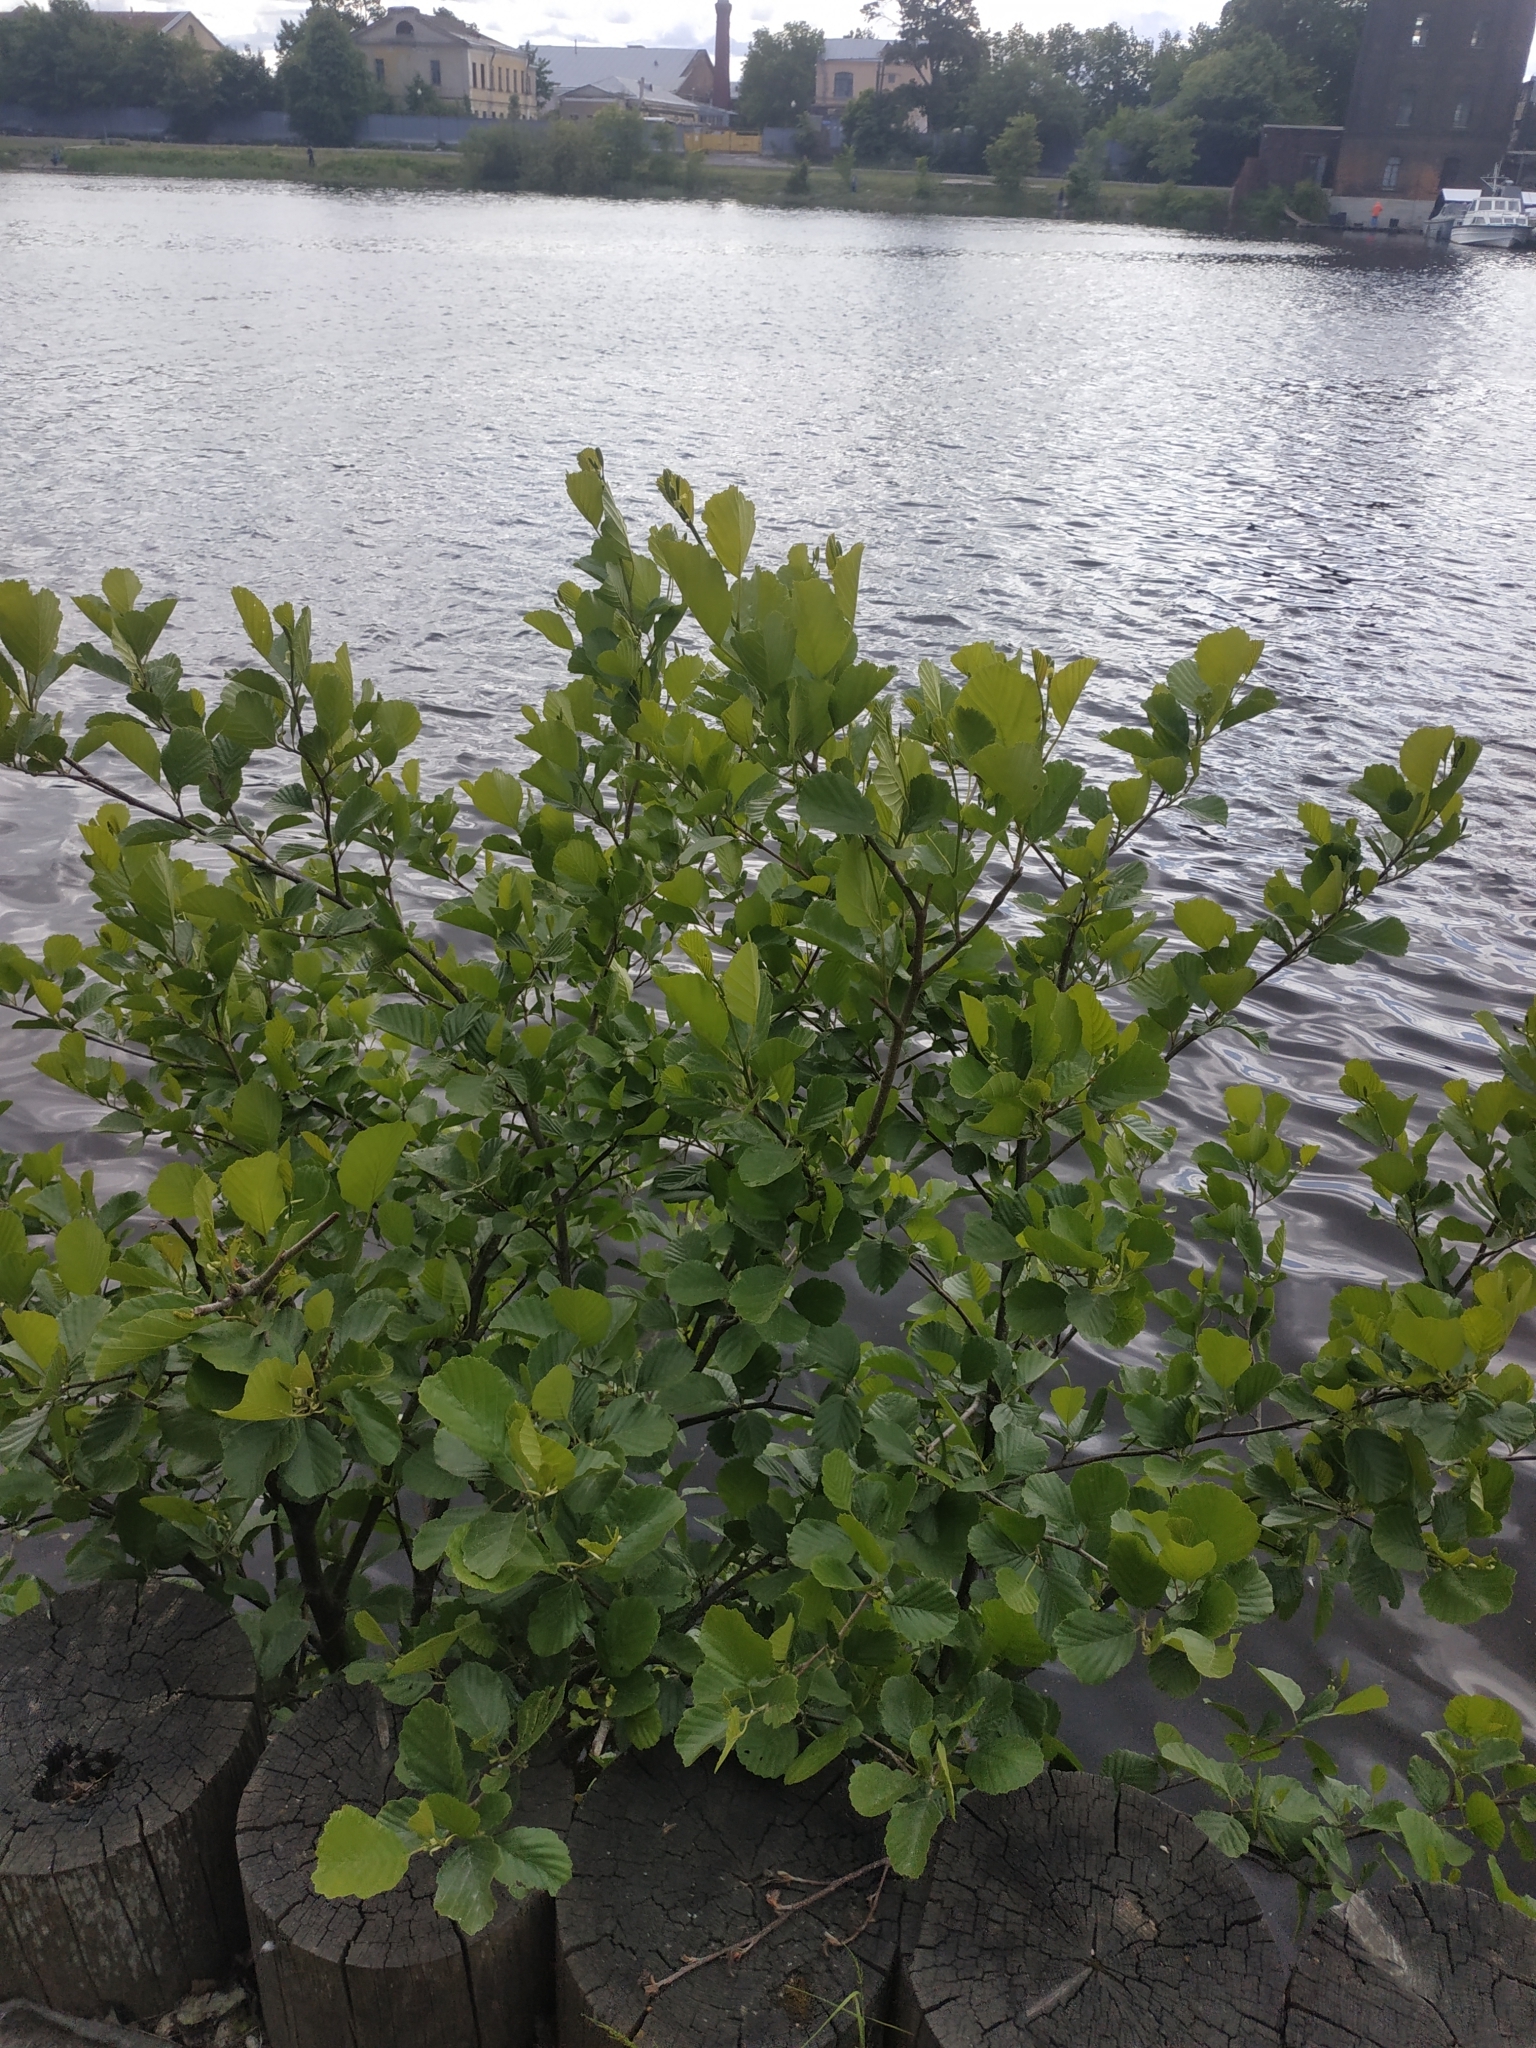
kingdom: Plantae
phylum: Tracheophyta
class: Magnoliopsida
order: Fagales
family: Betulaceae
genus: Alnus
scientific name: Alnus glutinosa
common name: Black alder
